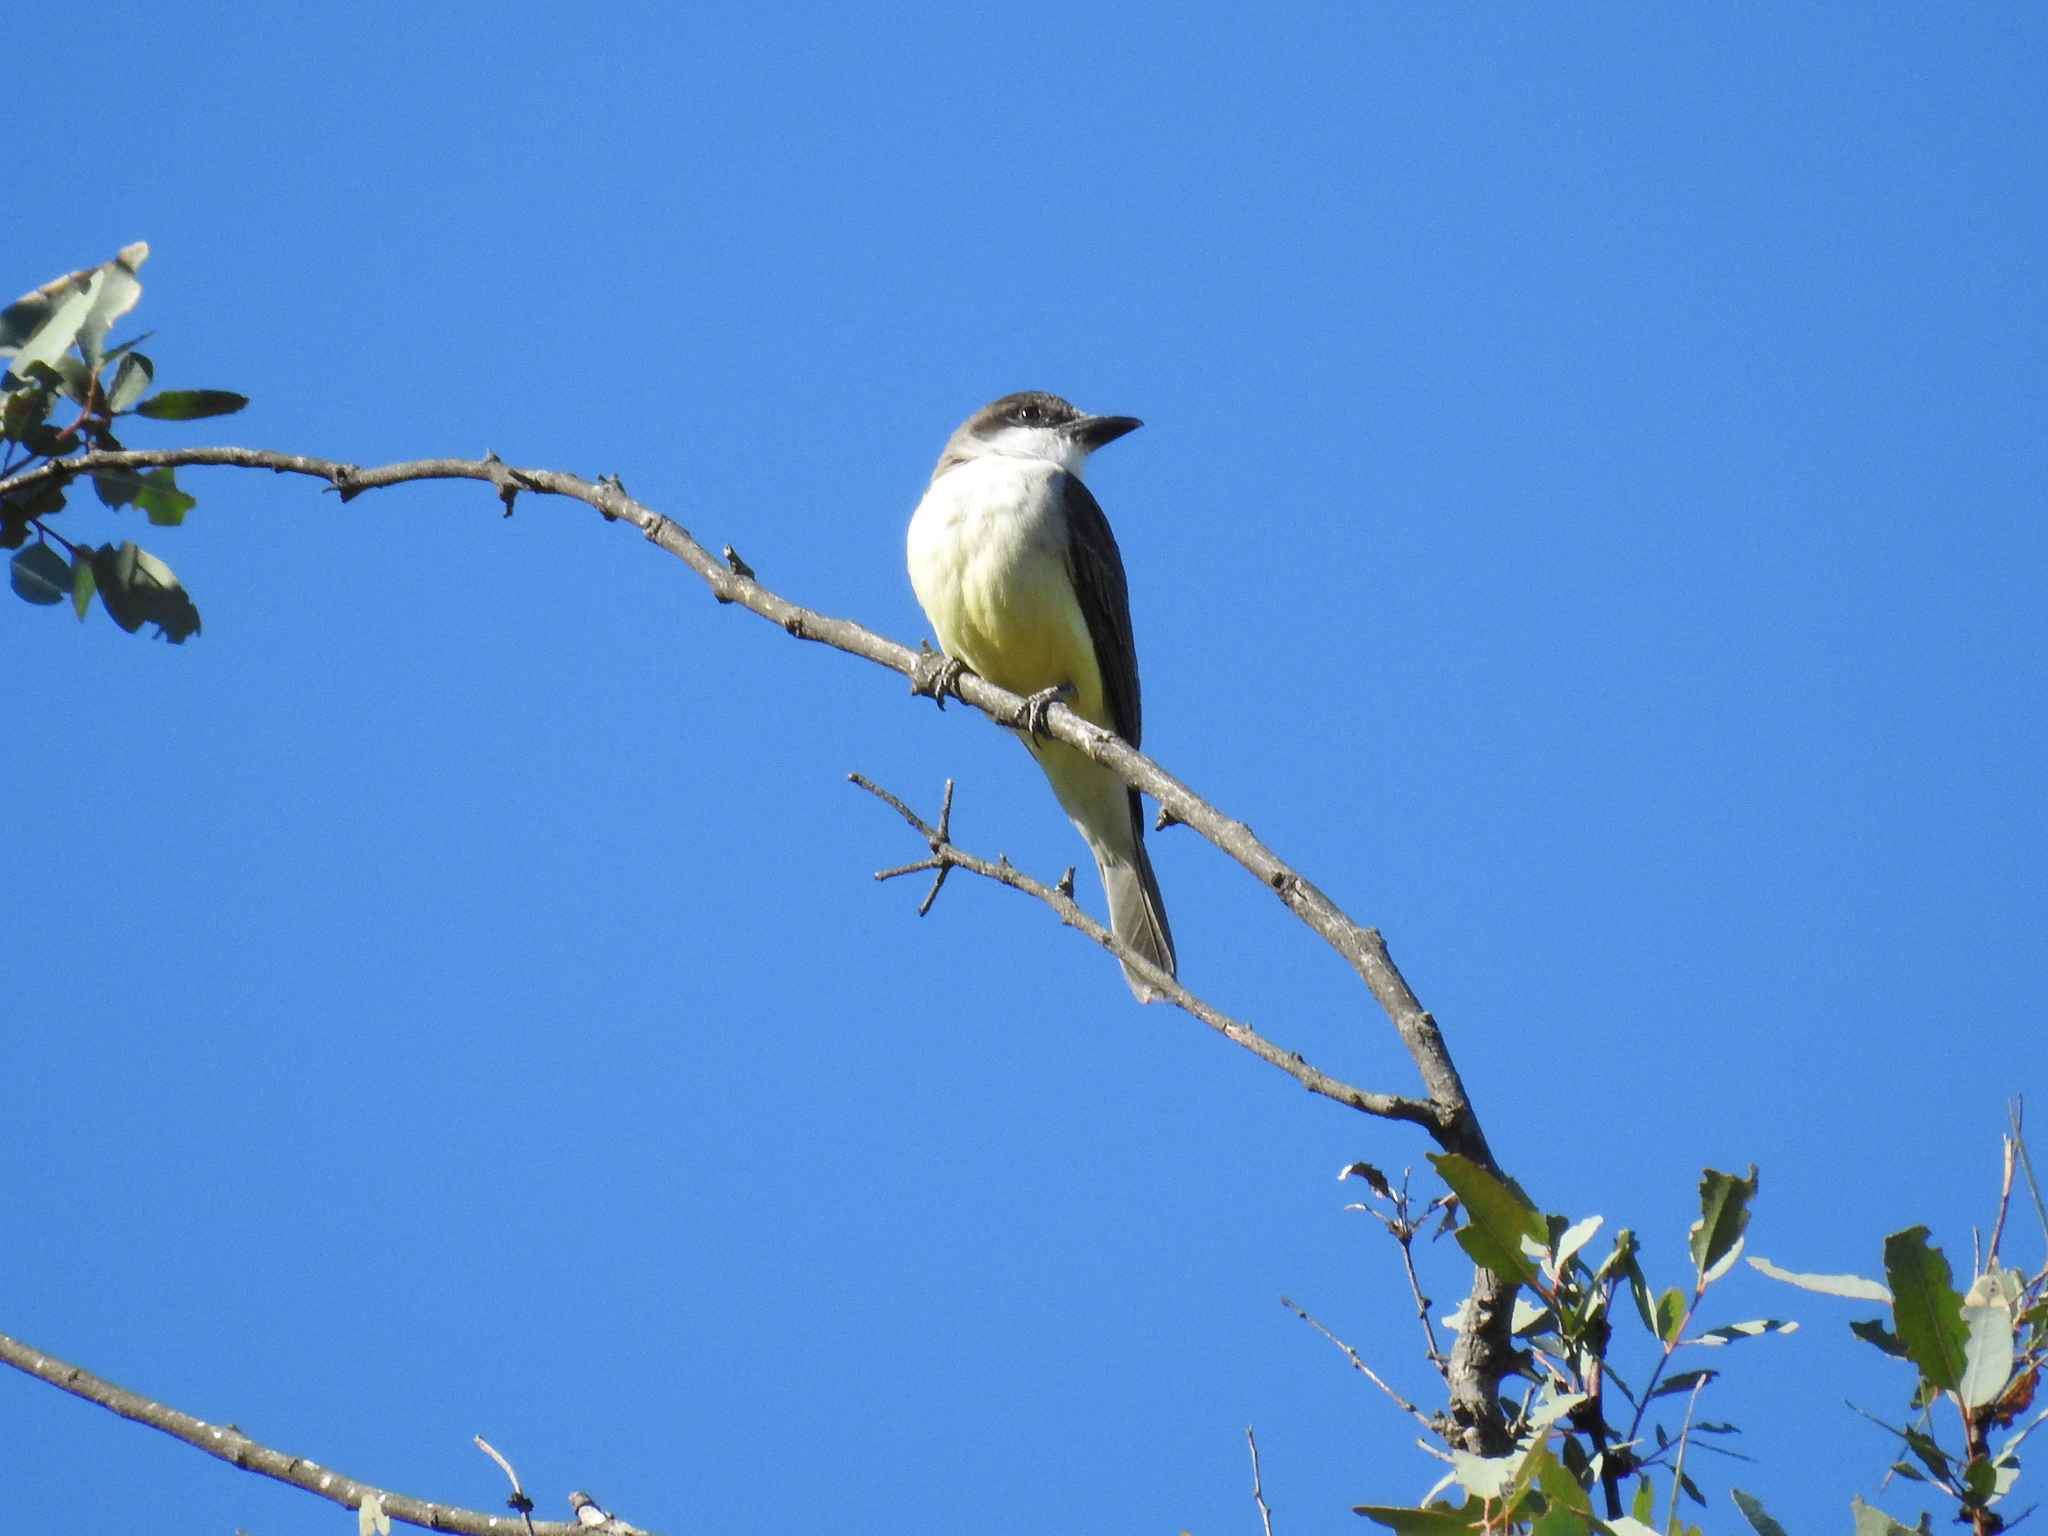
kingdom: Animalia
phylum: Chordata
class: Aves
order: Passeriformes
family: Tyrannidae
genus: Tyrannus
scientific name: Tyrannus crassirostris
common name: Thick-billed kingbird
